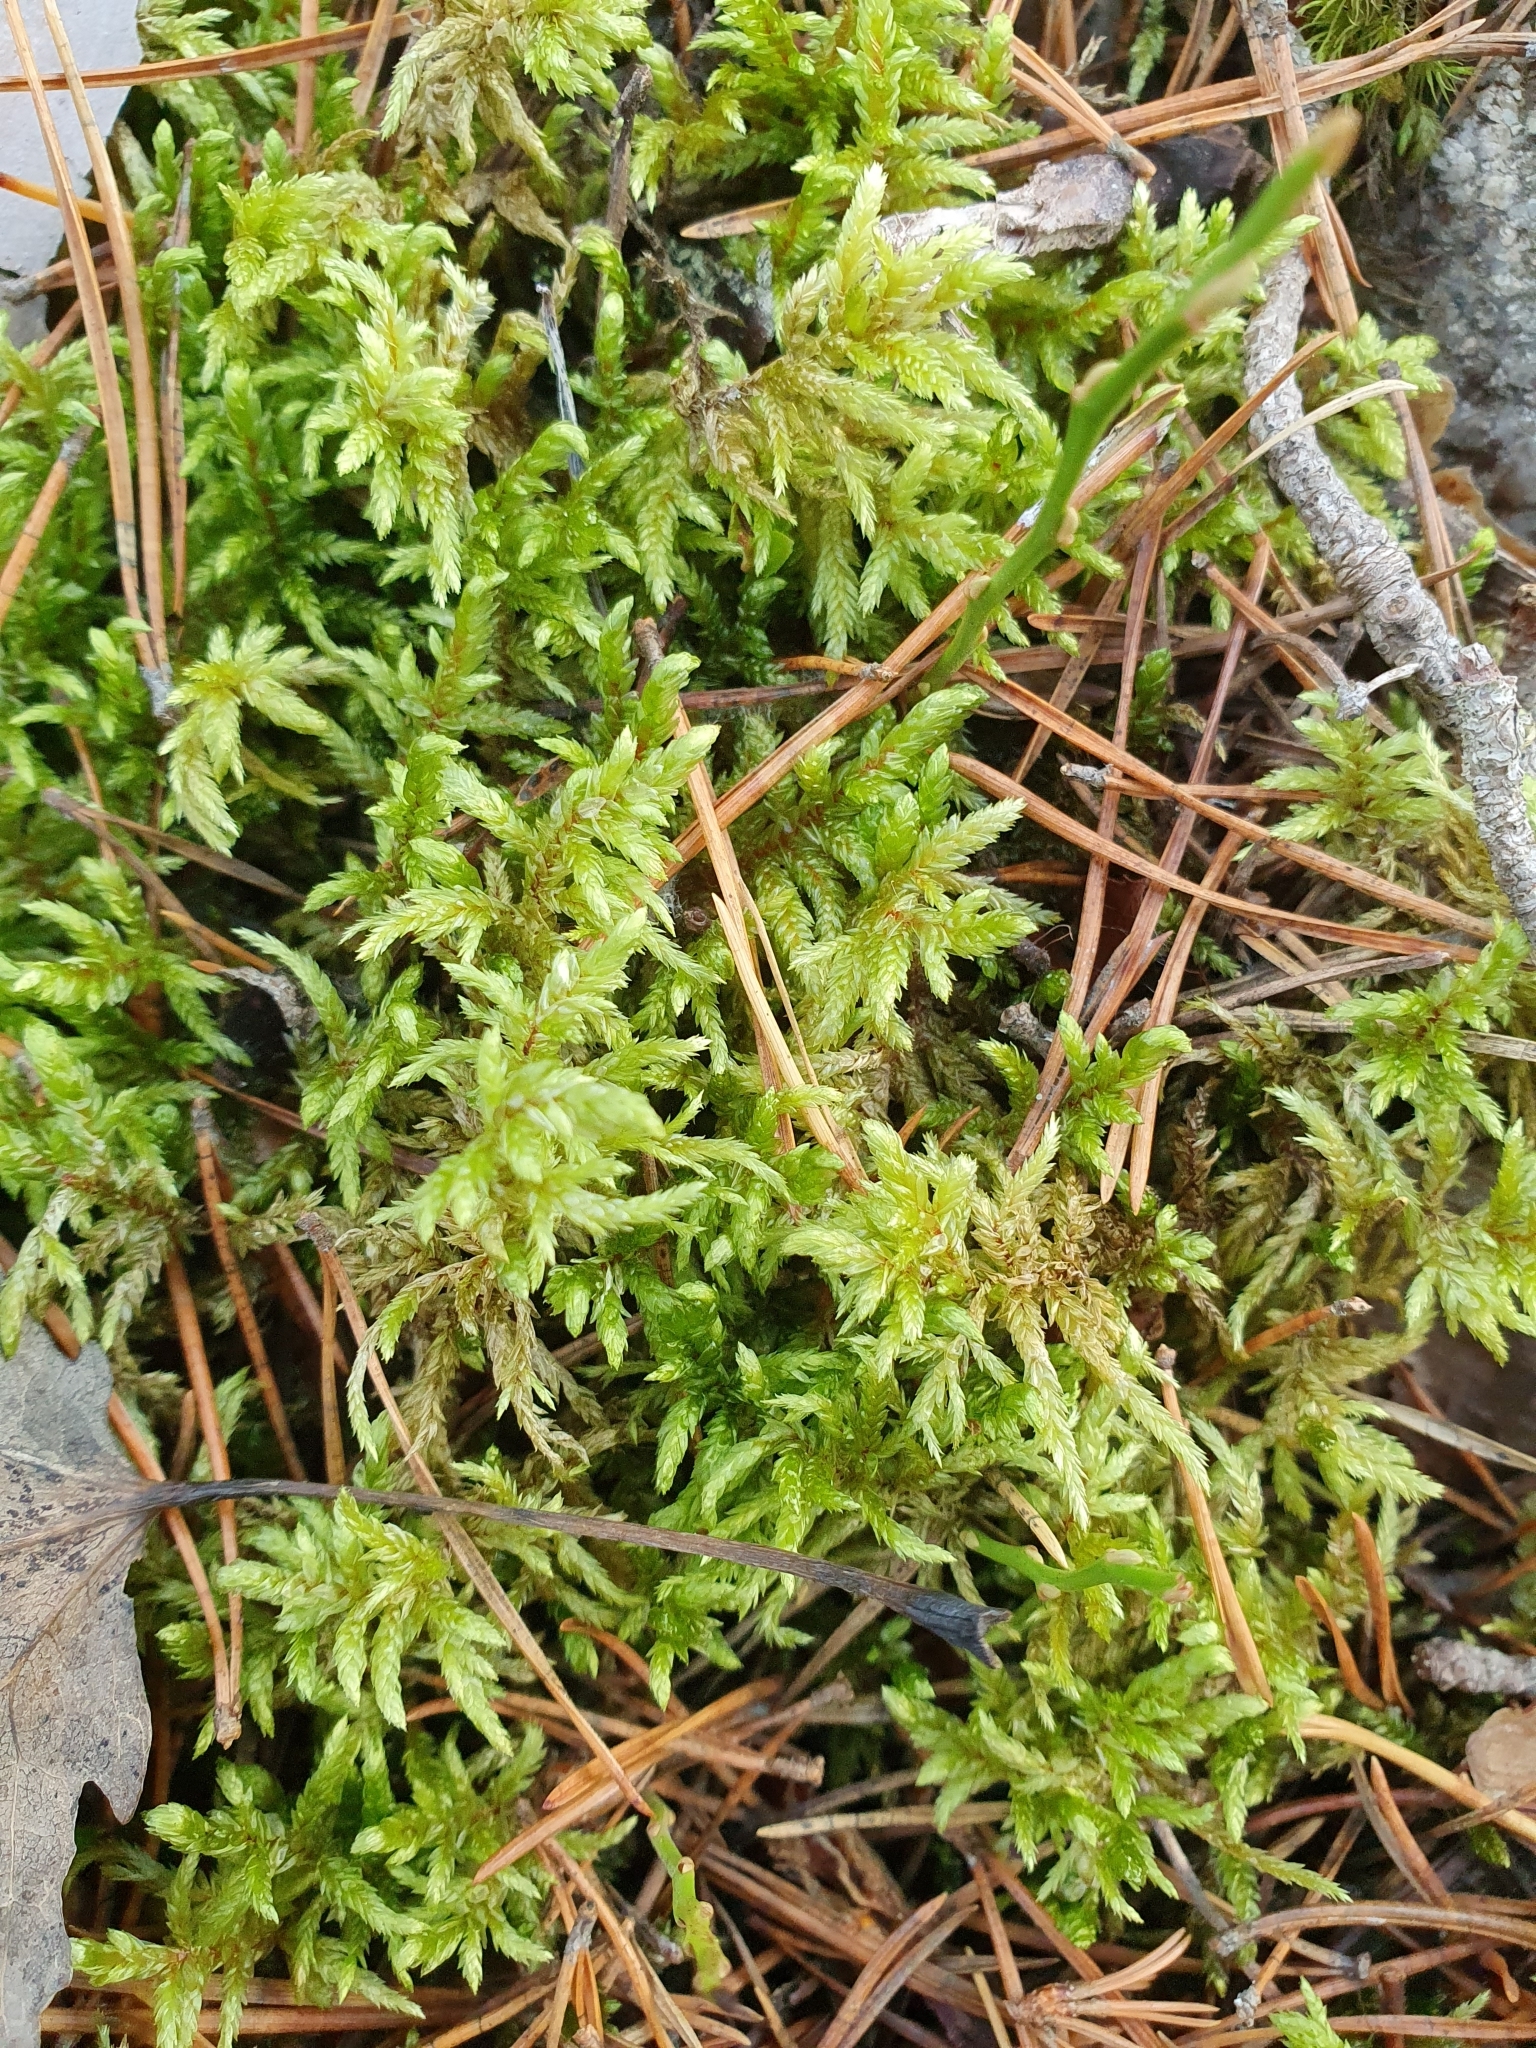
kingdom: Plantae
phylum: Bryophyta
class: Bryopsida
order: Hypnales
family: Hylocomiaceae
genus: Pleurozium
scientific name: Pleurozium schreberi
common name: Red-stemmed feather moss
